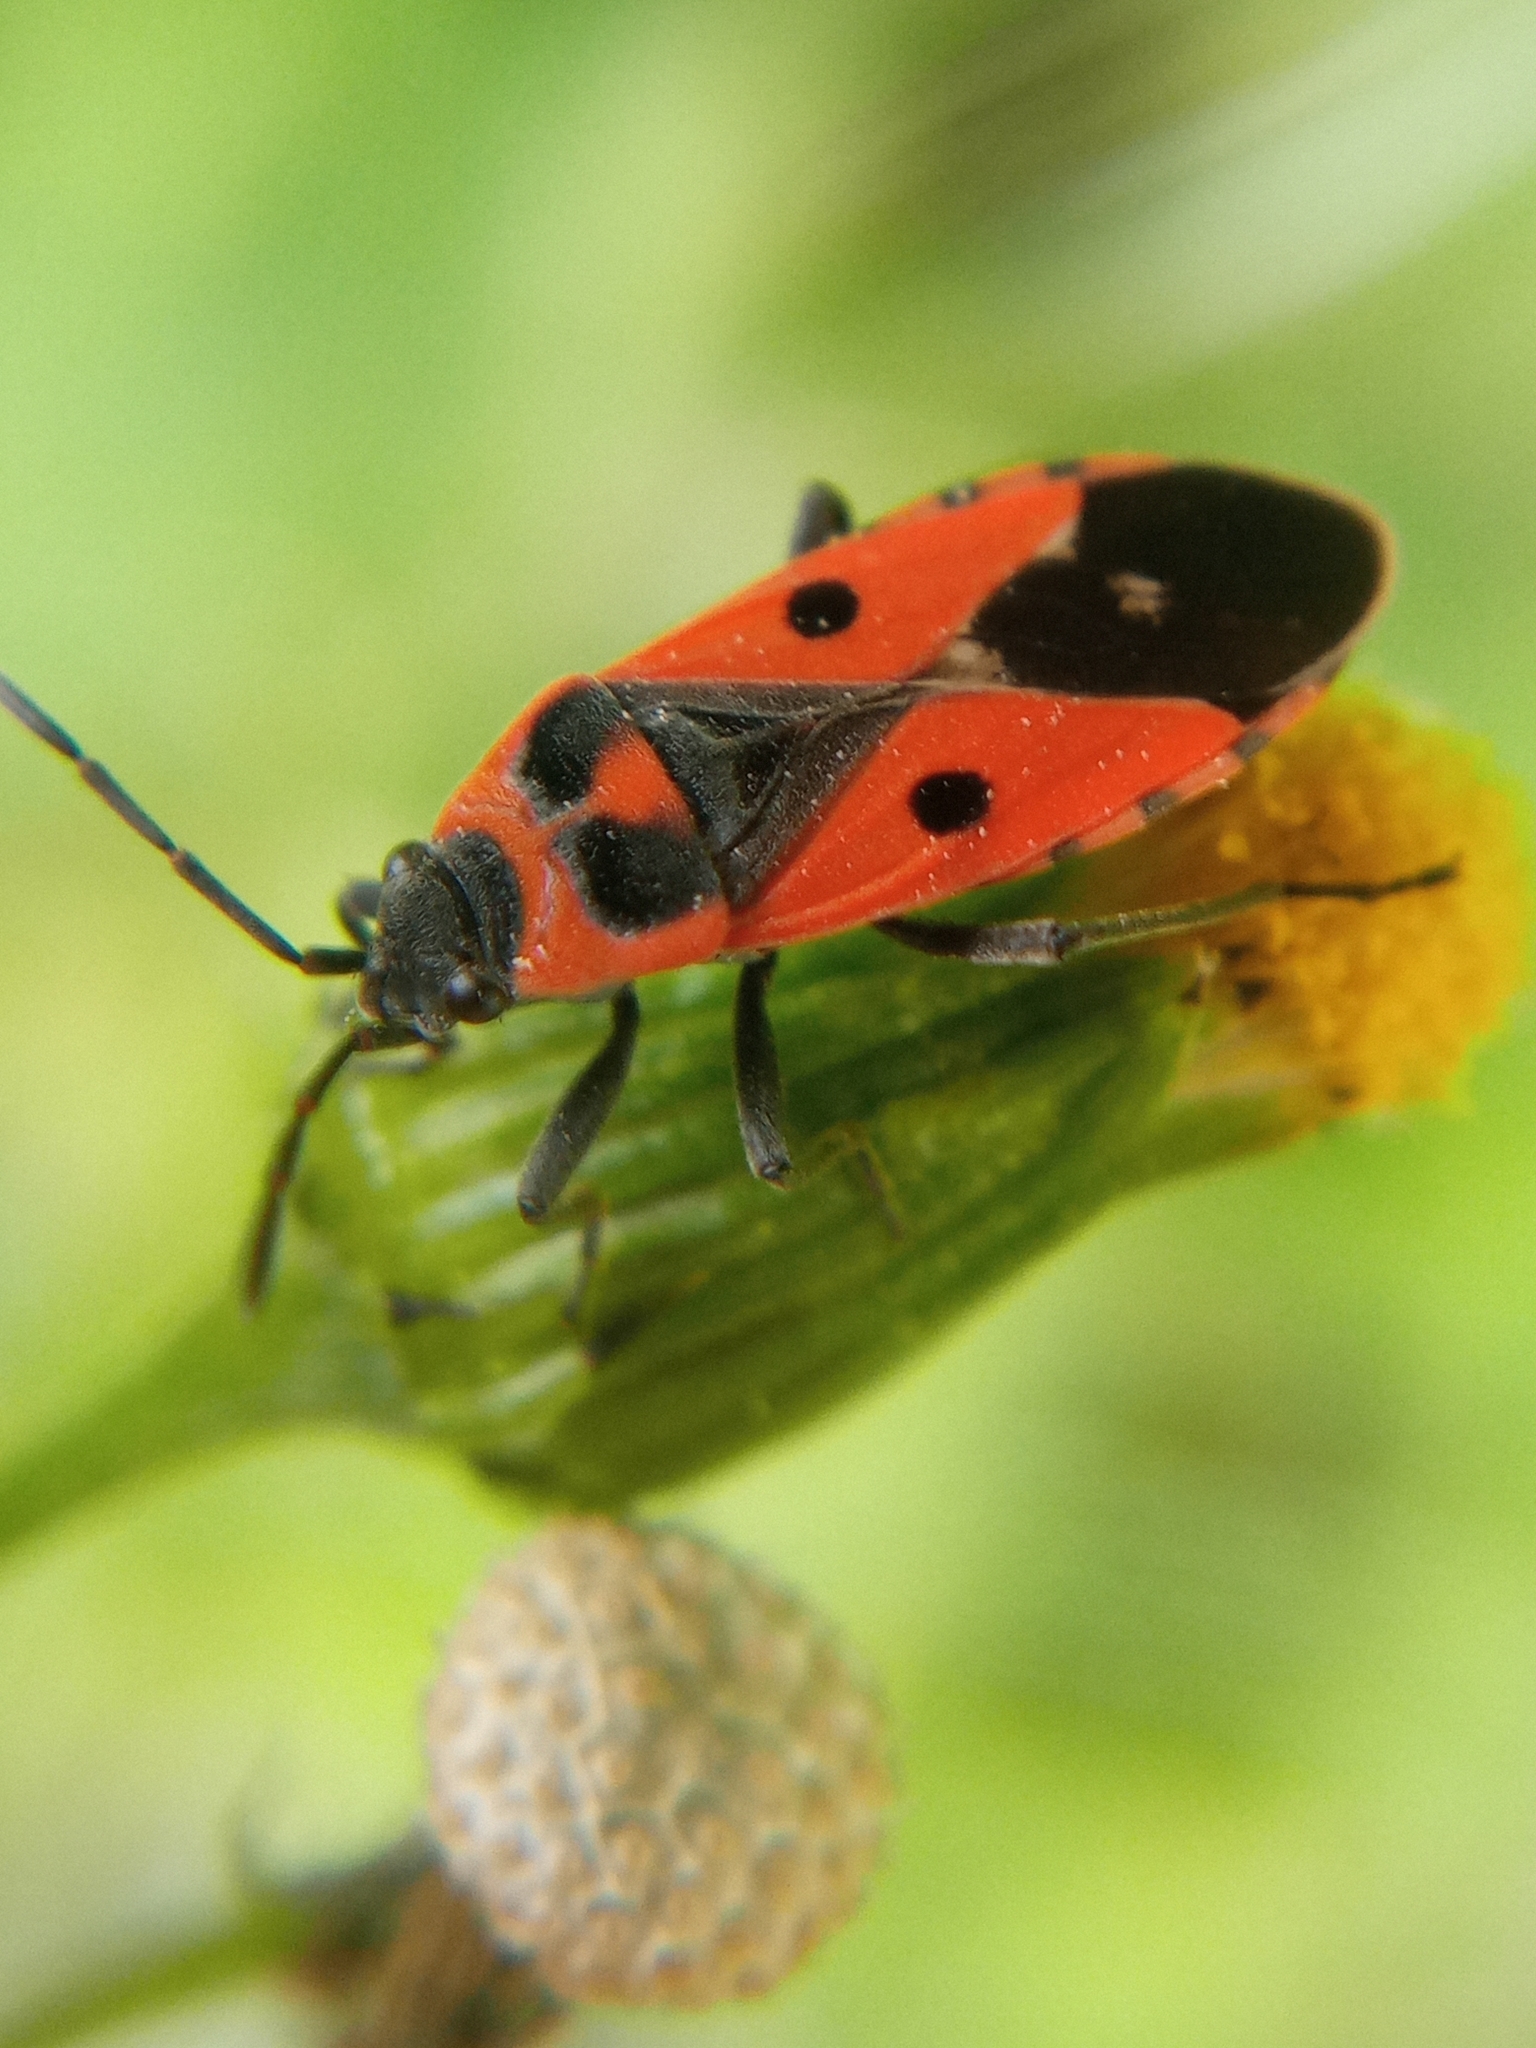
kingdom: Animalia
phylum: Arthropoda
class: Insecta
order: Hemiptera
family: Lygaeidae
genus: Melanocoryphus
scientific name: Melanocoryphus albomaculatus
